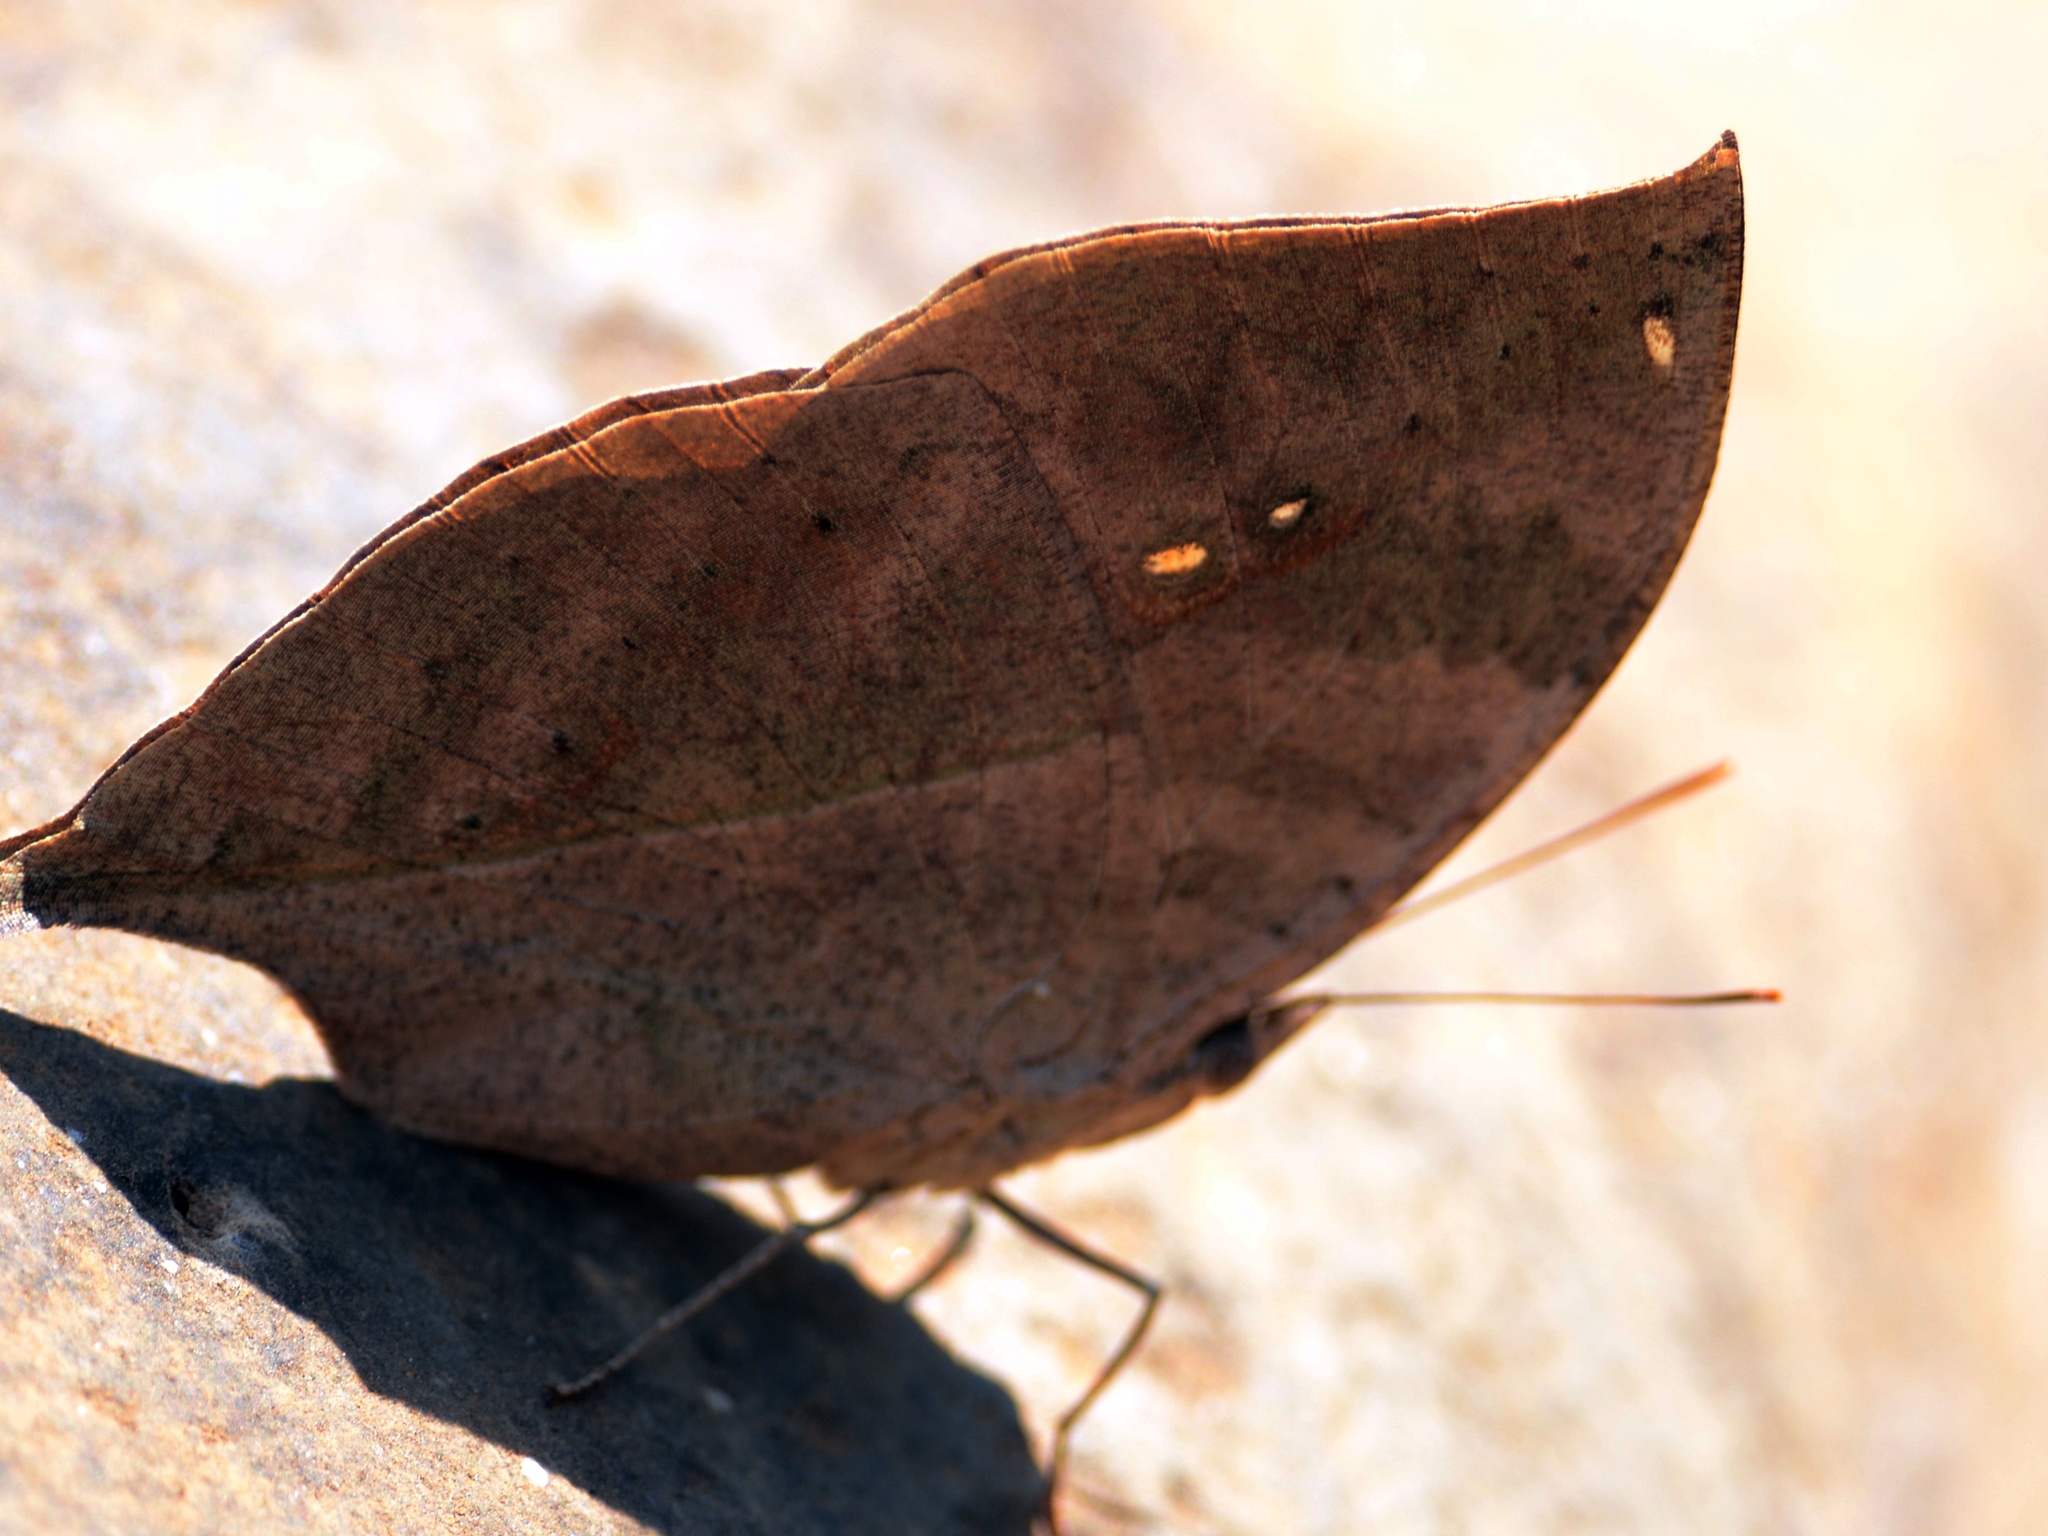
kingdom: Animalia
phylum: Arthropoda
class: Insecta
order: Lepidoptera
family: Nymphalidae
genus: Kallima
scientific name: Kallima horsfieldii
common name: Sahyadri blue oakleaf
